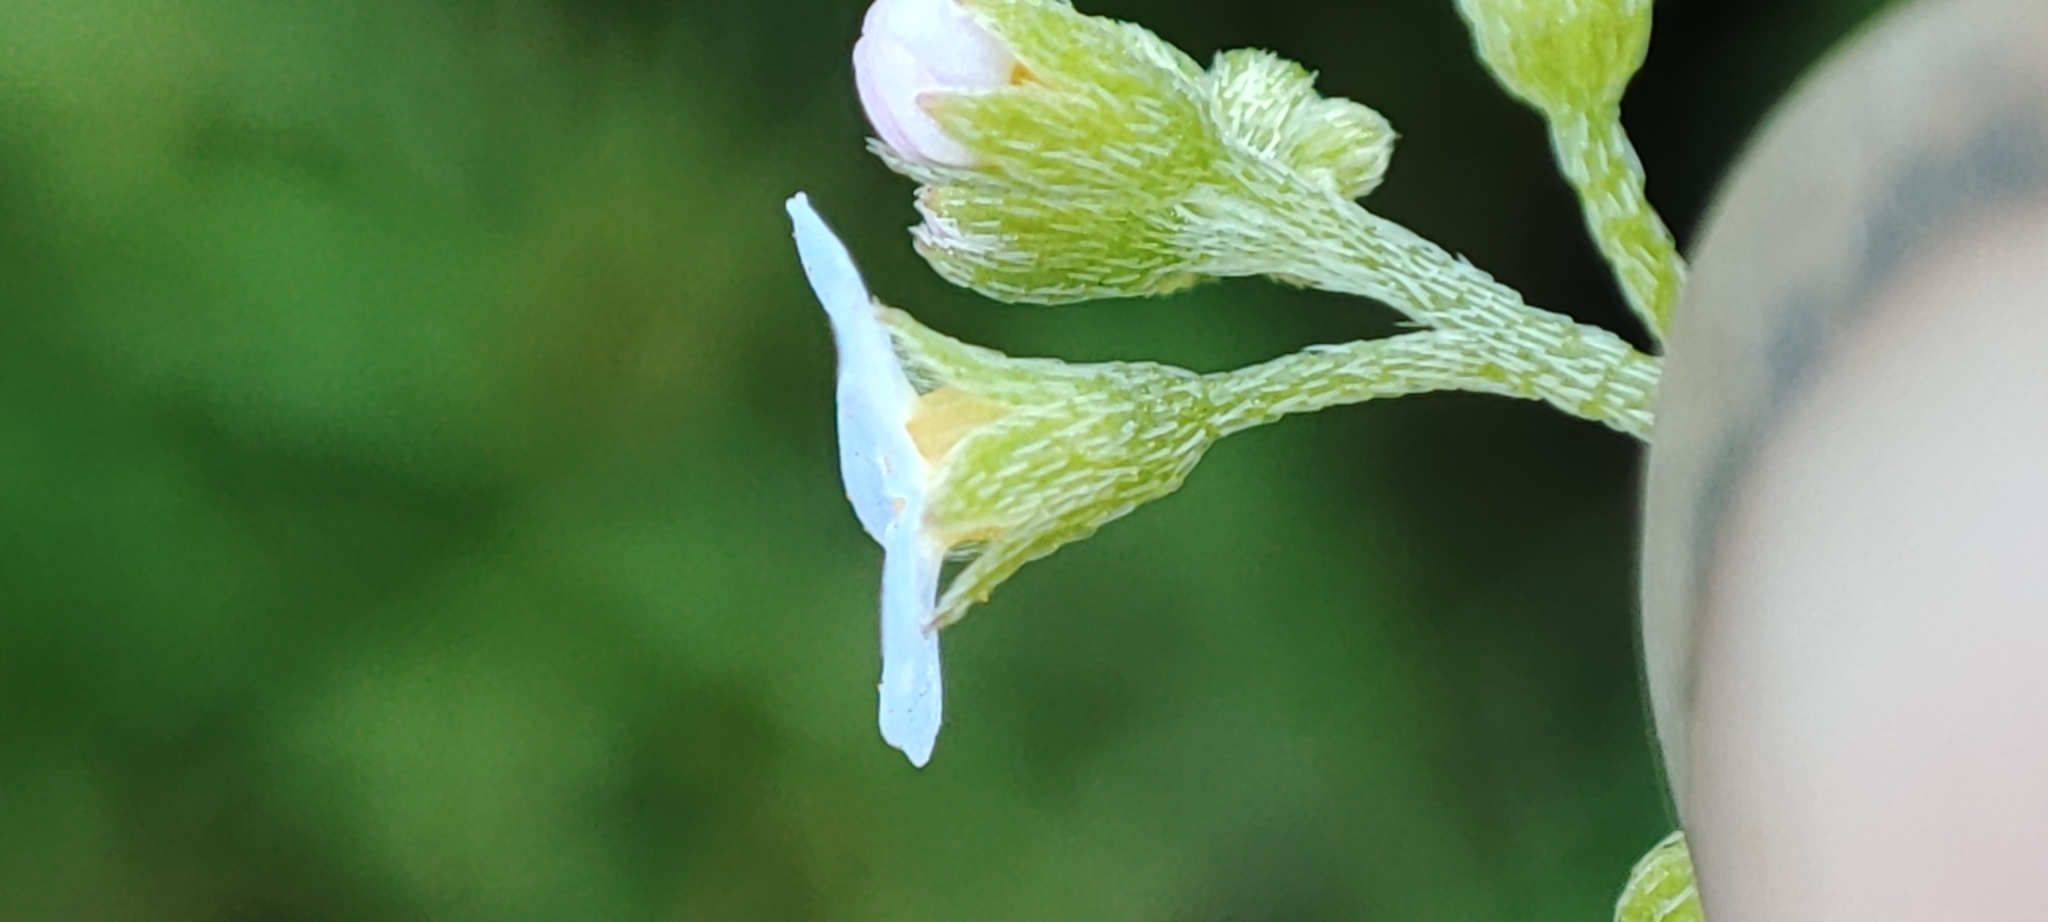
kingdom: Plantae
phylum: Tracheophyta
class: Magnoliopsida
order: Boraginales
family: Boraginaceae
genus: Myosotis
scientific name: Myosotis scorpioides
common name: Water forget-me-not
